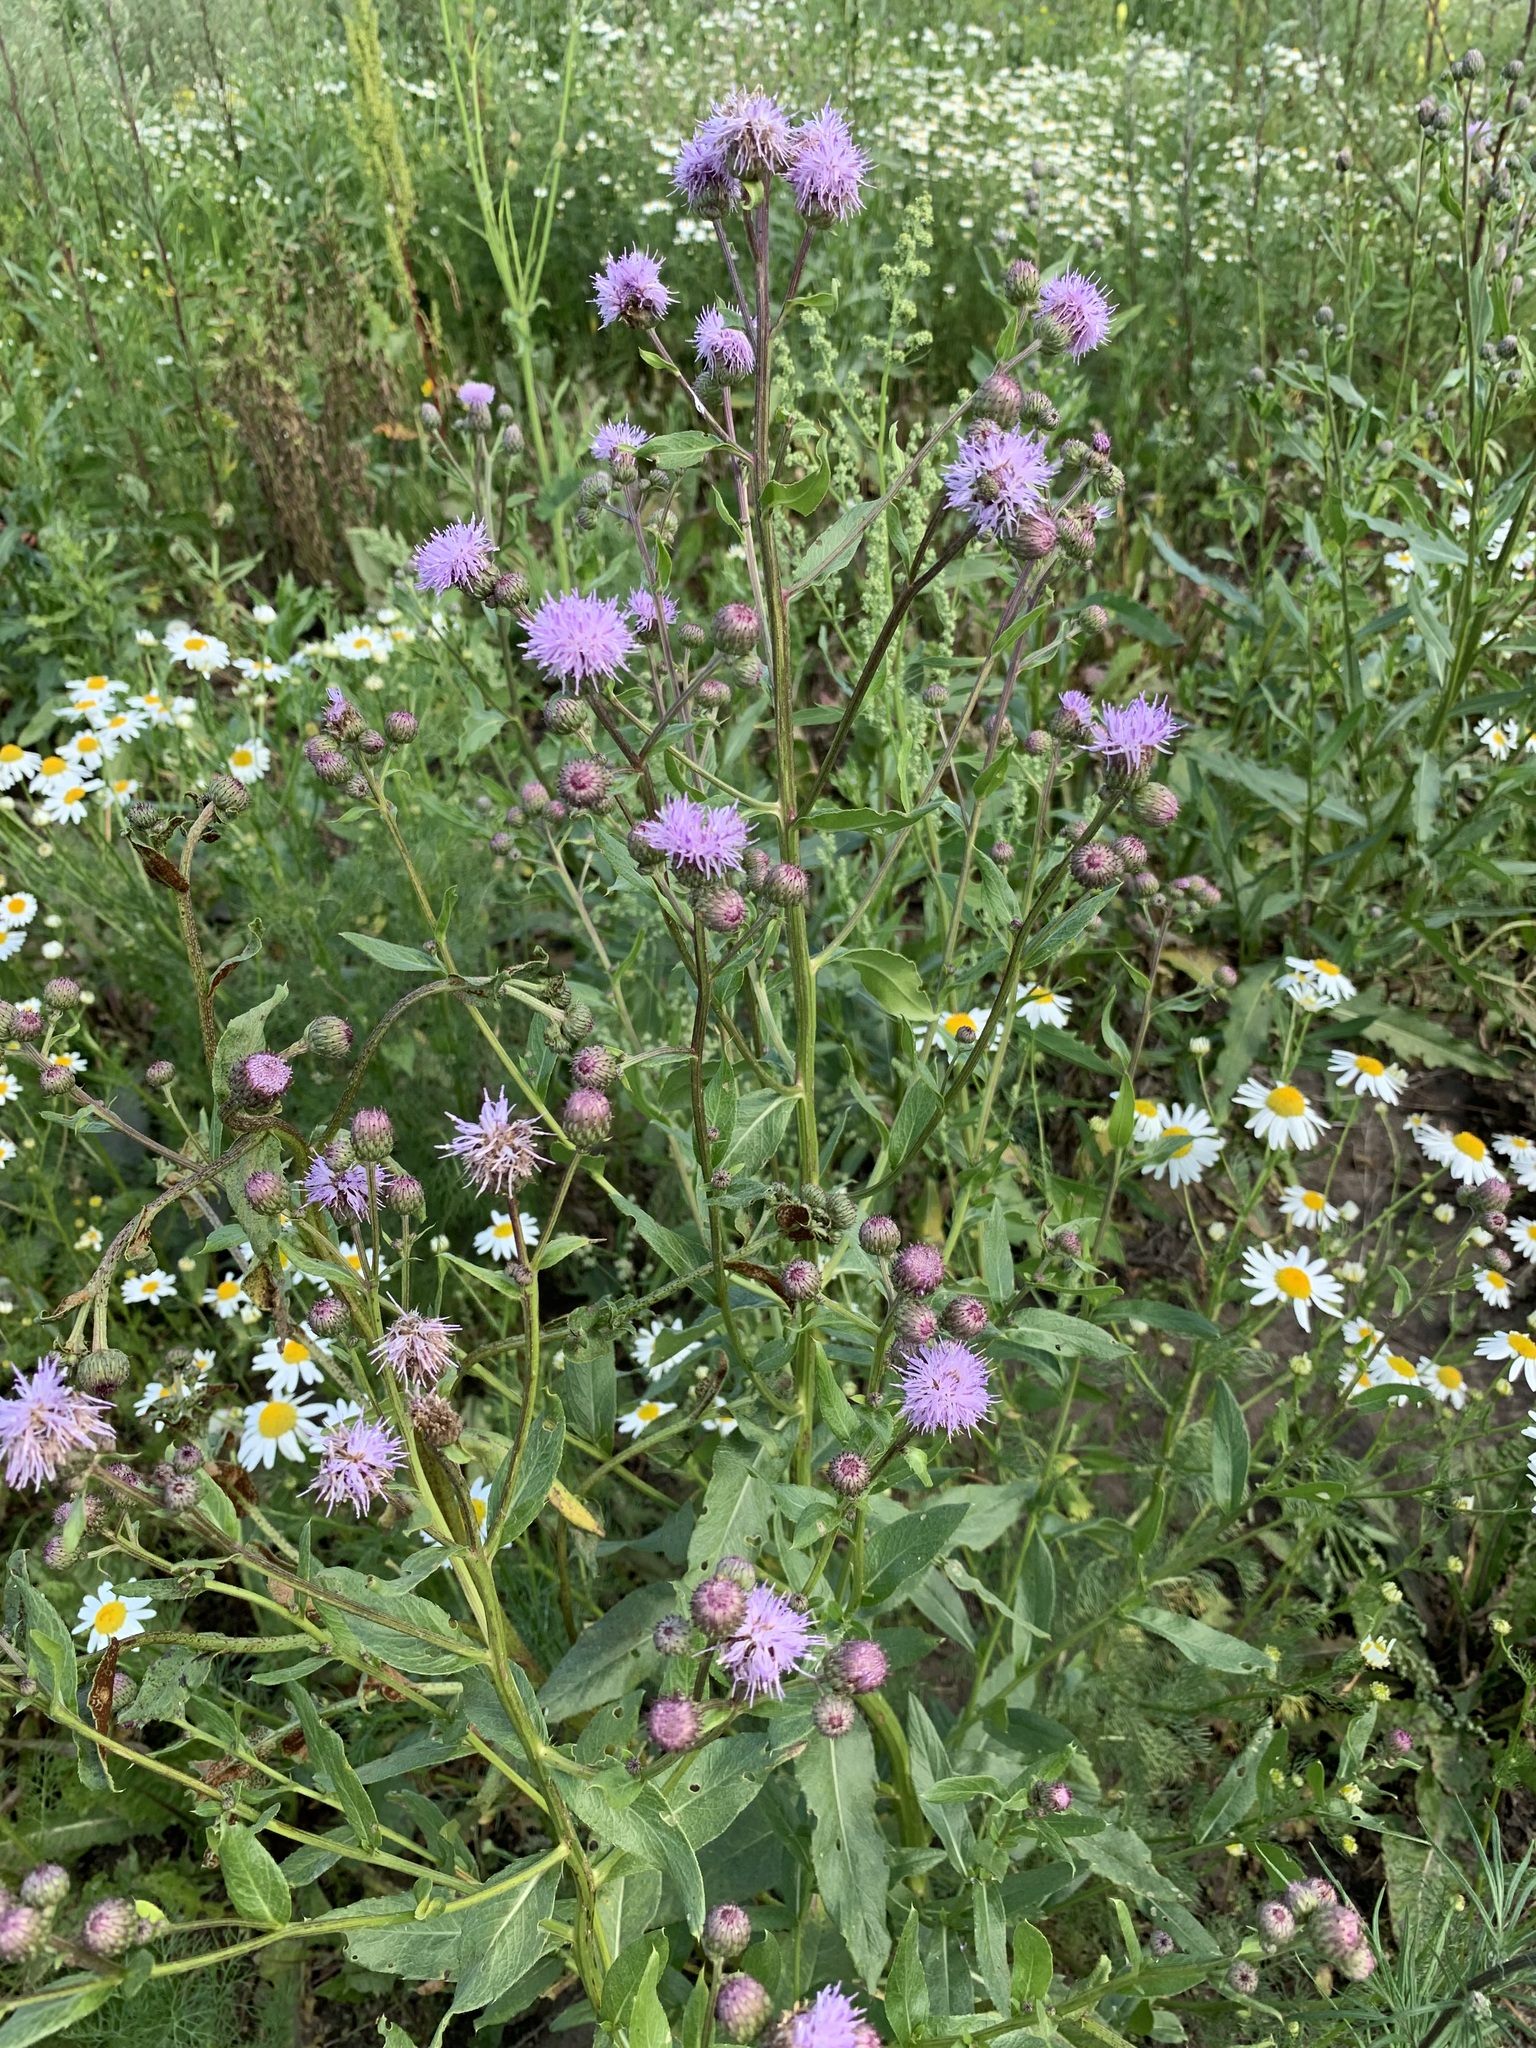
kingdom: Plantae
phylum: Tracheophyta
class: Magnoliopsida
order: Asterales
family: Asteraceae
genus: Cirsium
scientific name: Cirsium arvense
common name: Creeping thistle
